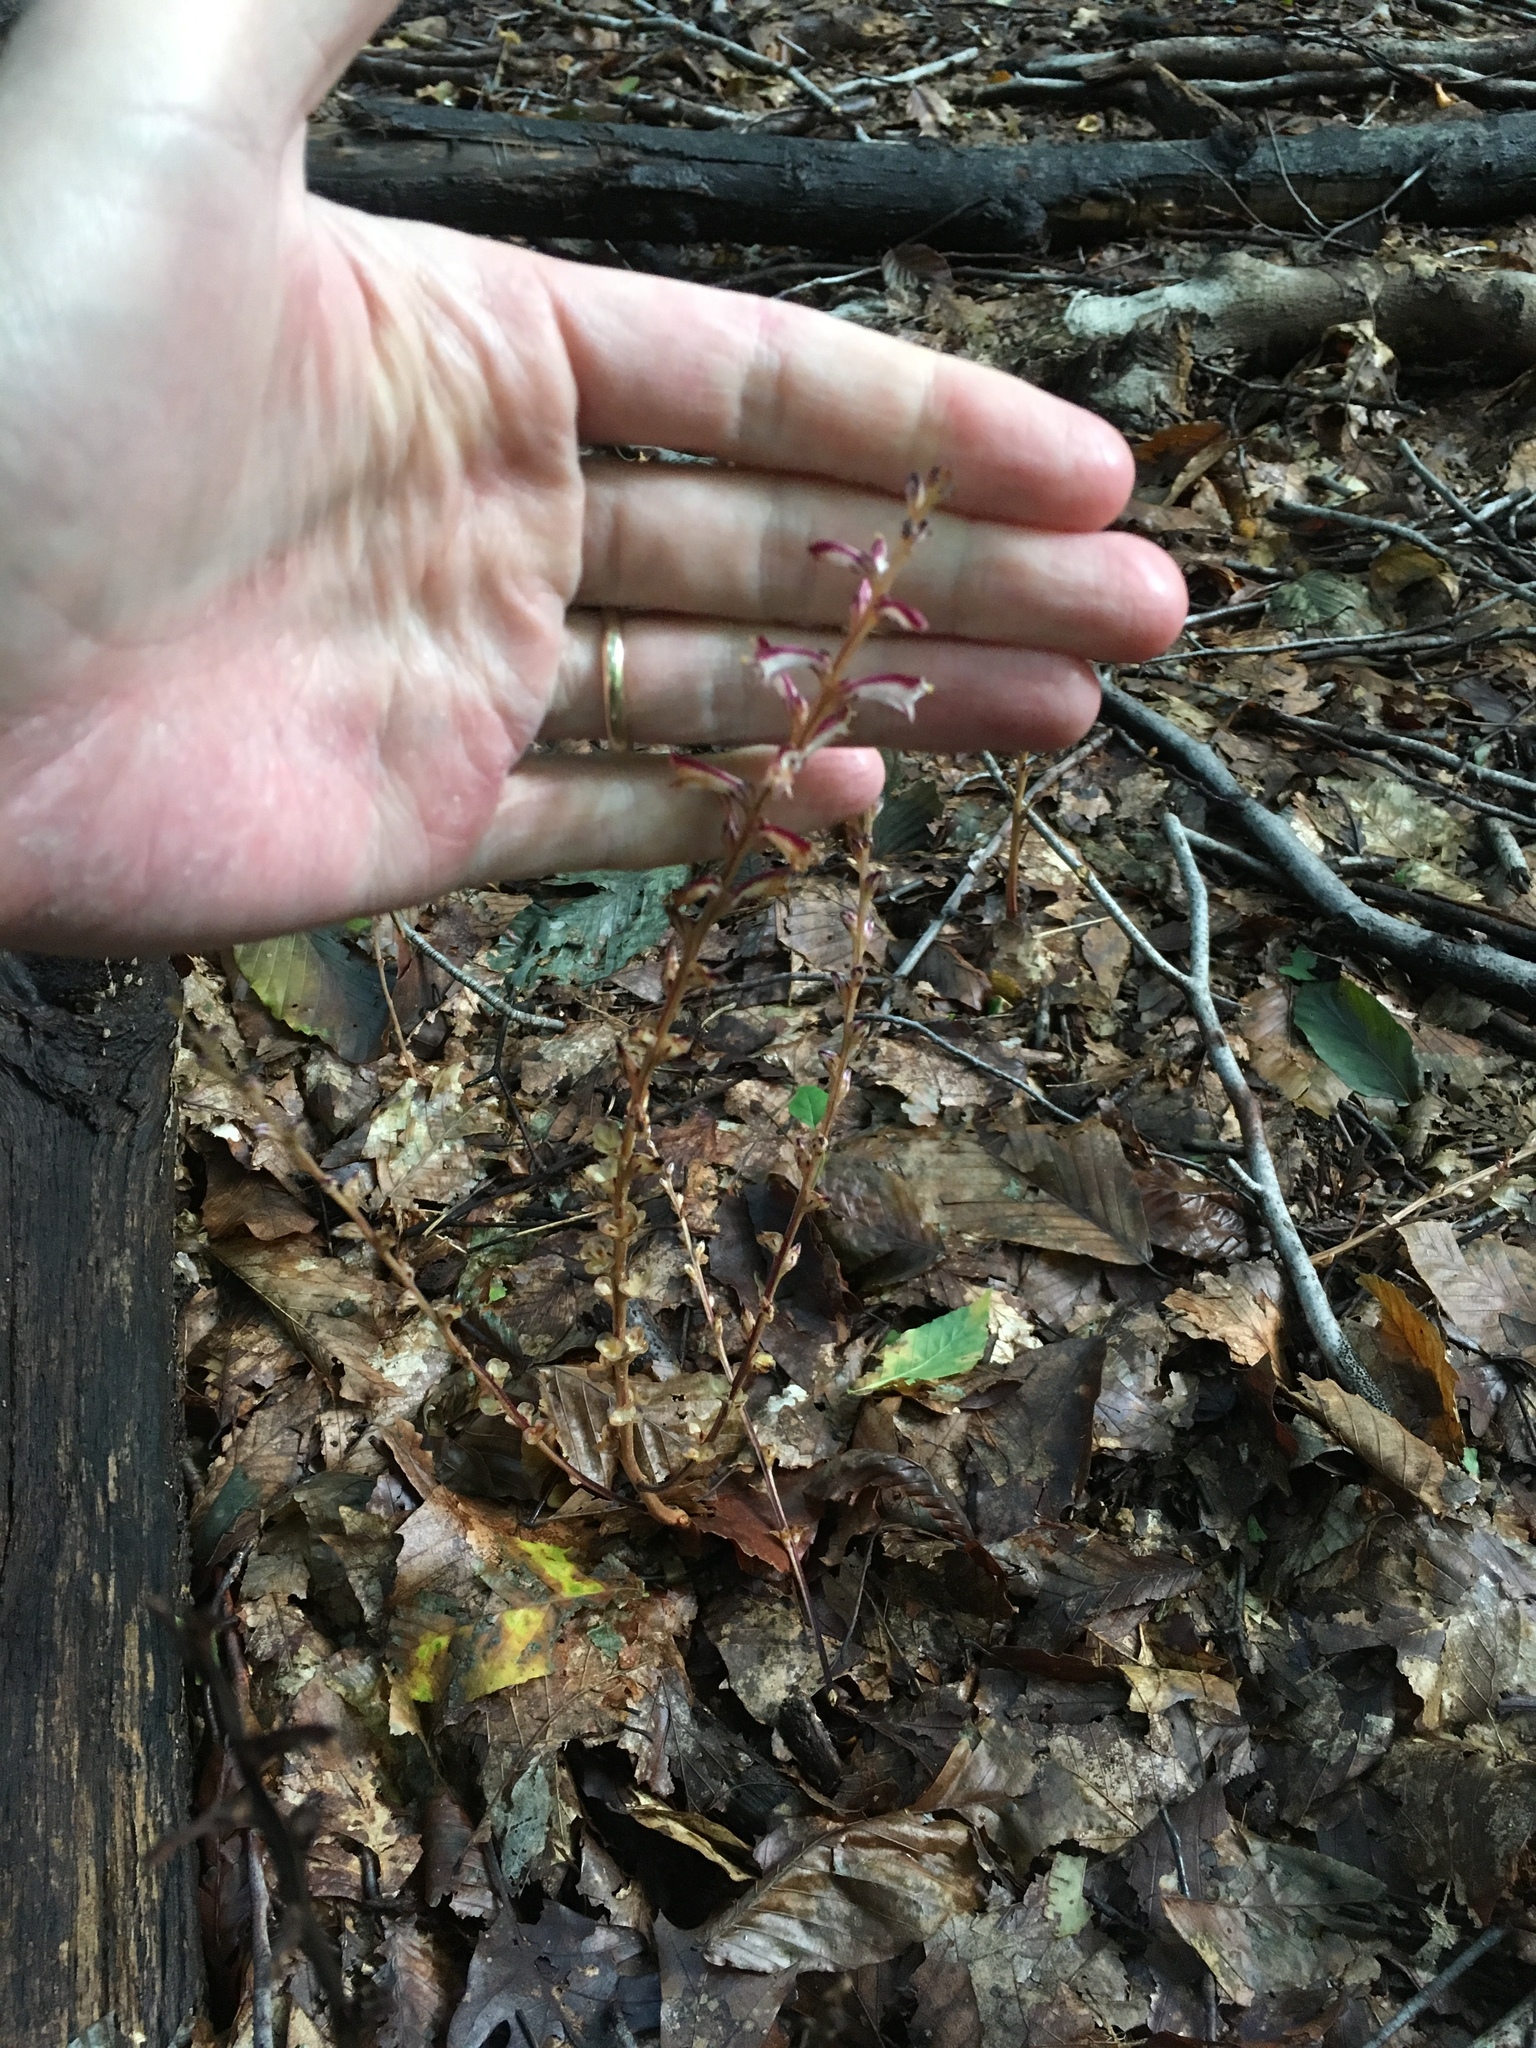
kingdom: Plantae
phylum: Tracheophyta
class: Magnoliopsida
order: Lamiales
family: Orobanchaceae
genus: Epifagus
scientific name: Epifagus virginiana
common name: Beechdrops
